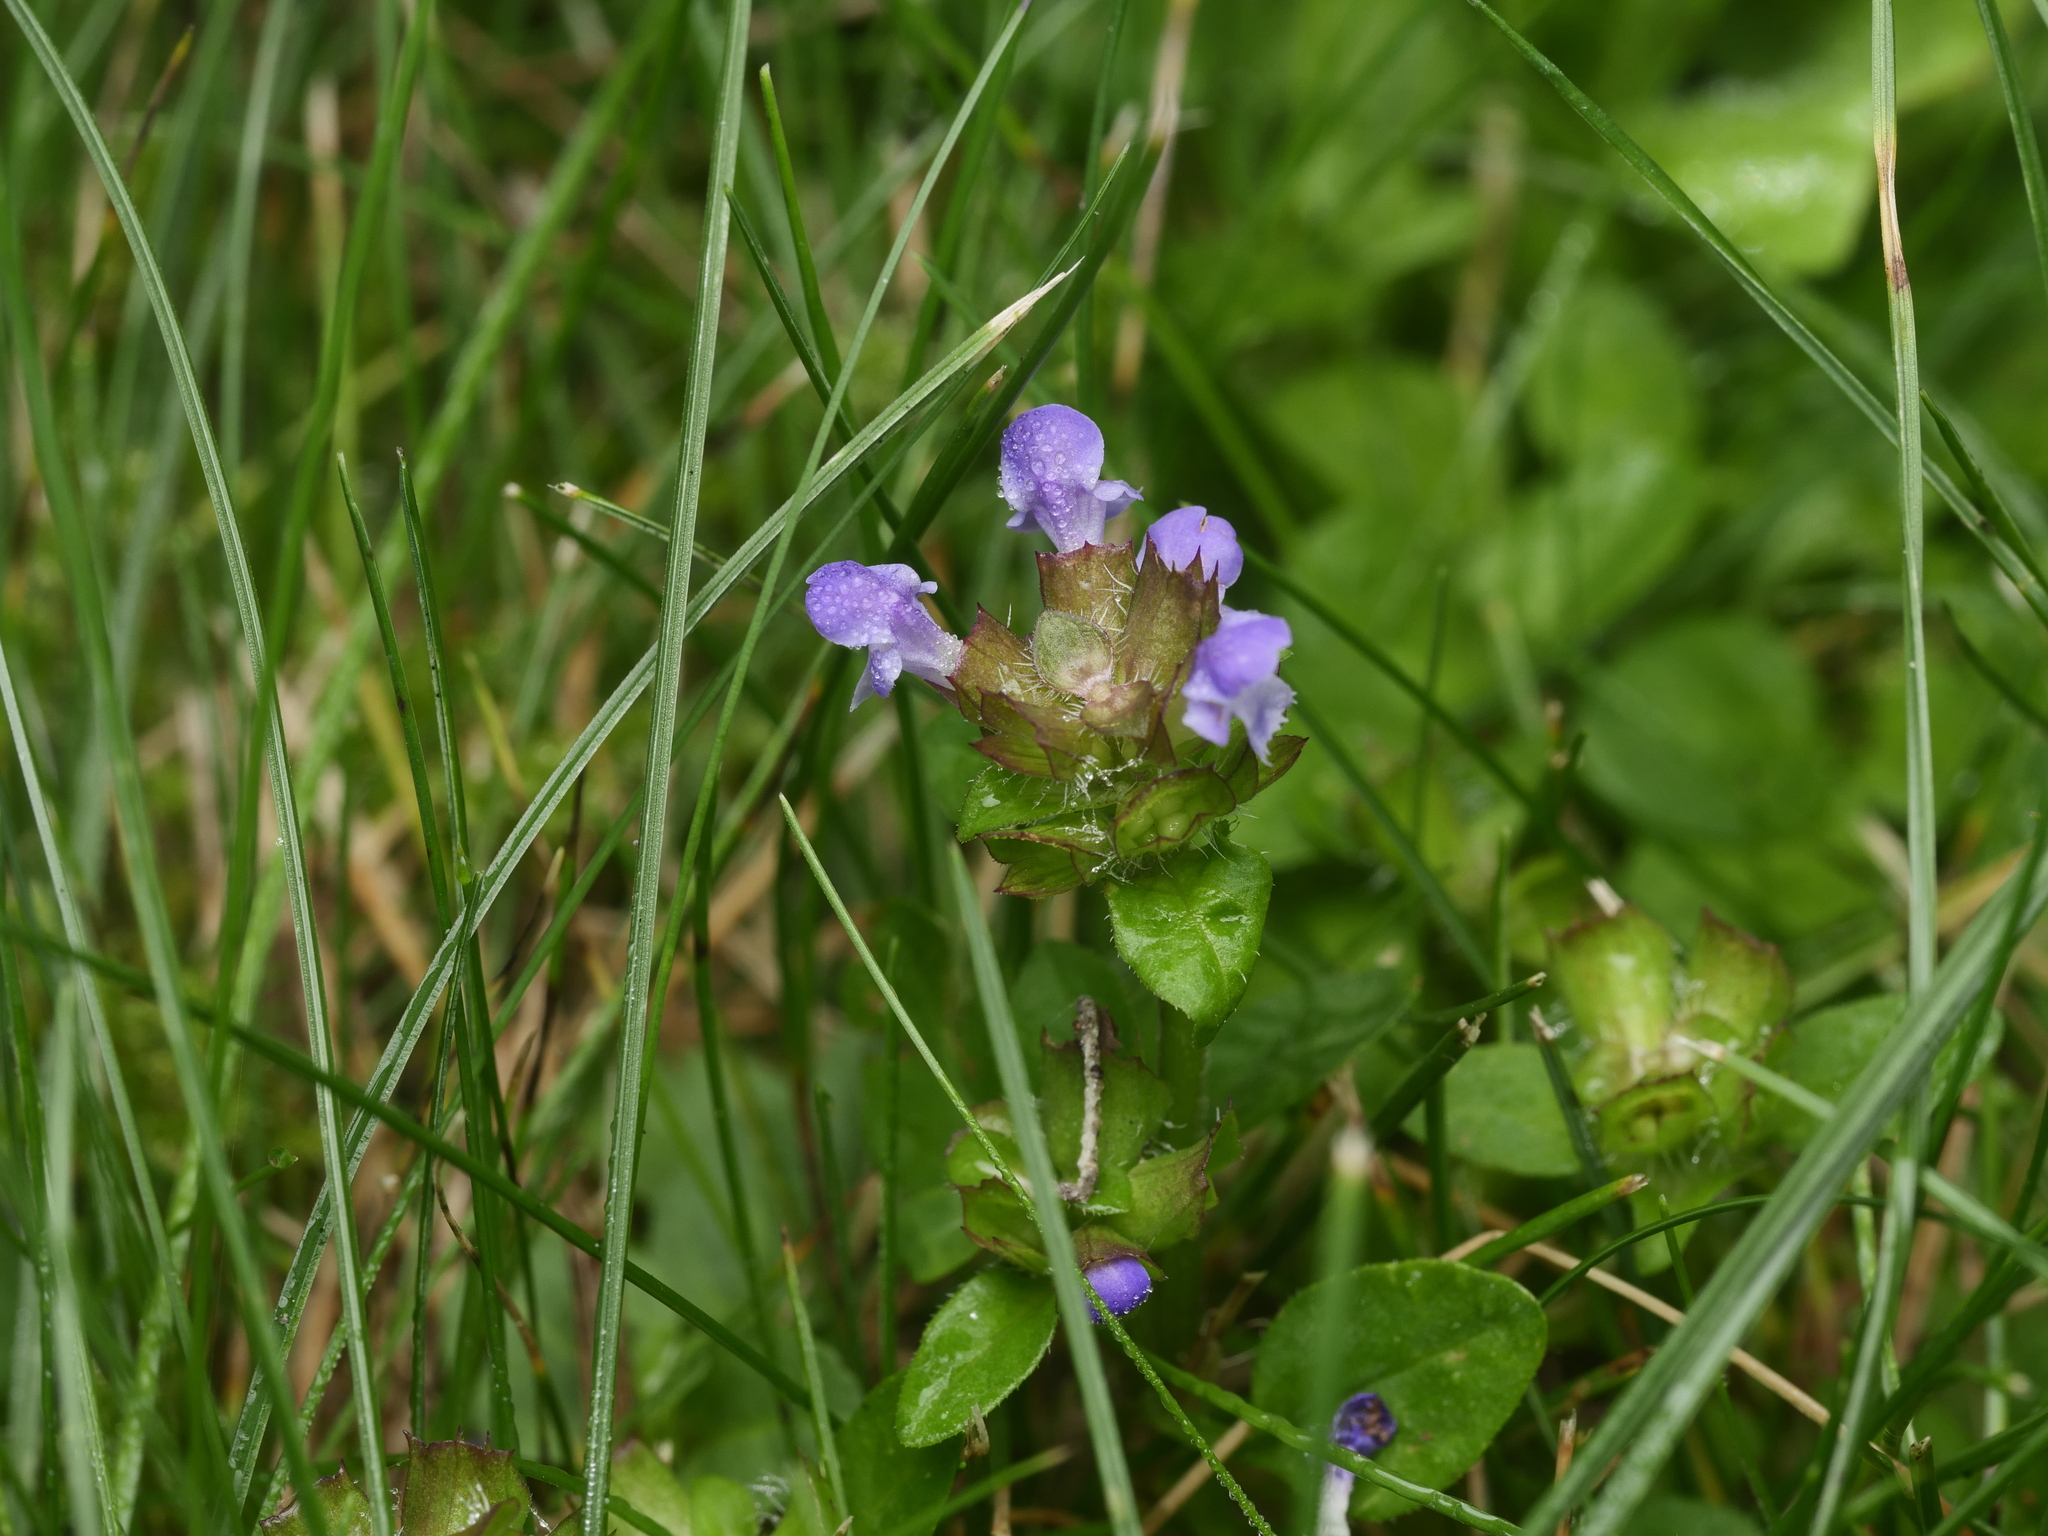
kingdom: Plantae
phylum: Tracheophyta
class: Magnoliopsida
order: Lamiales
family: Lamiaceae
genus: Prunella
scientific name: Prunella vulgaris
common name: Heal-all
